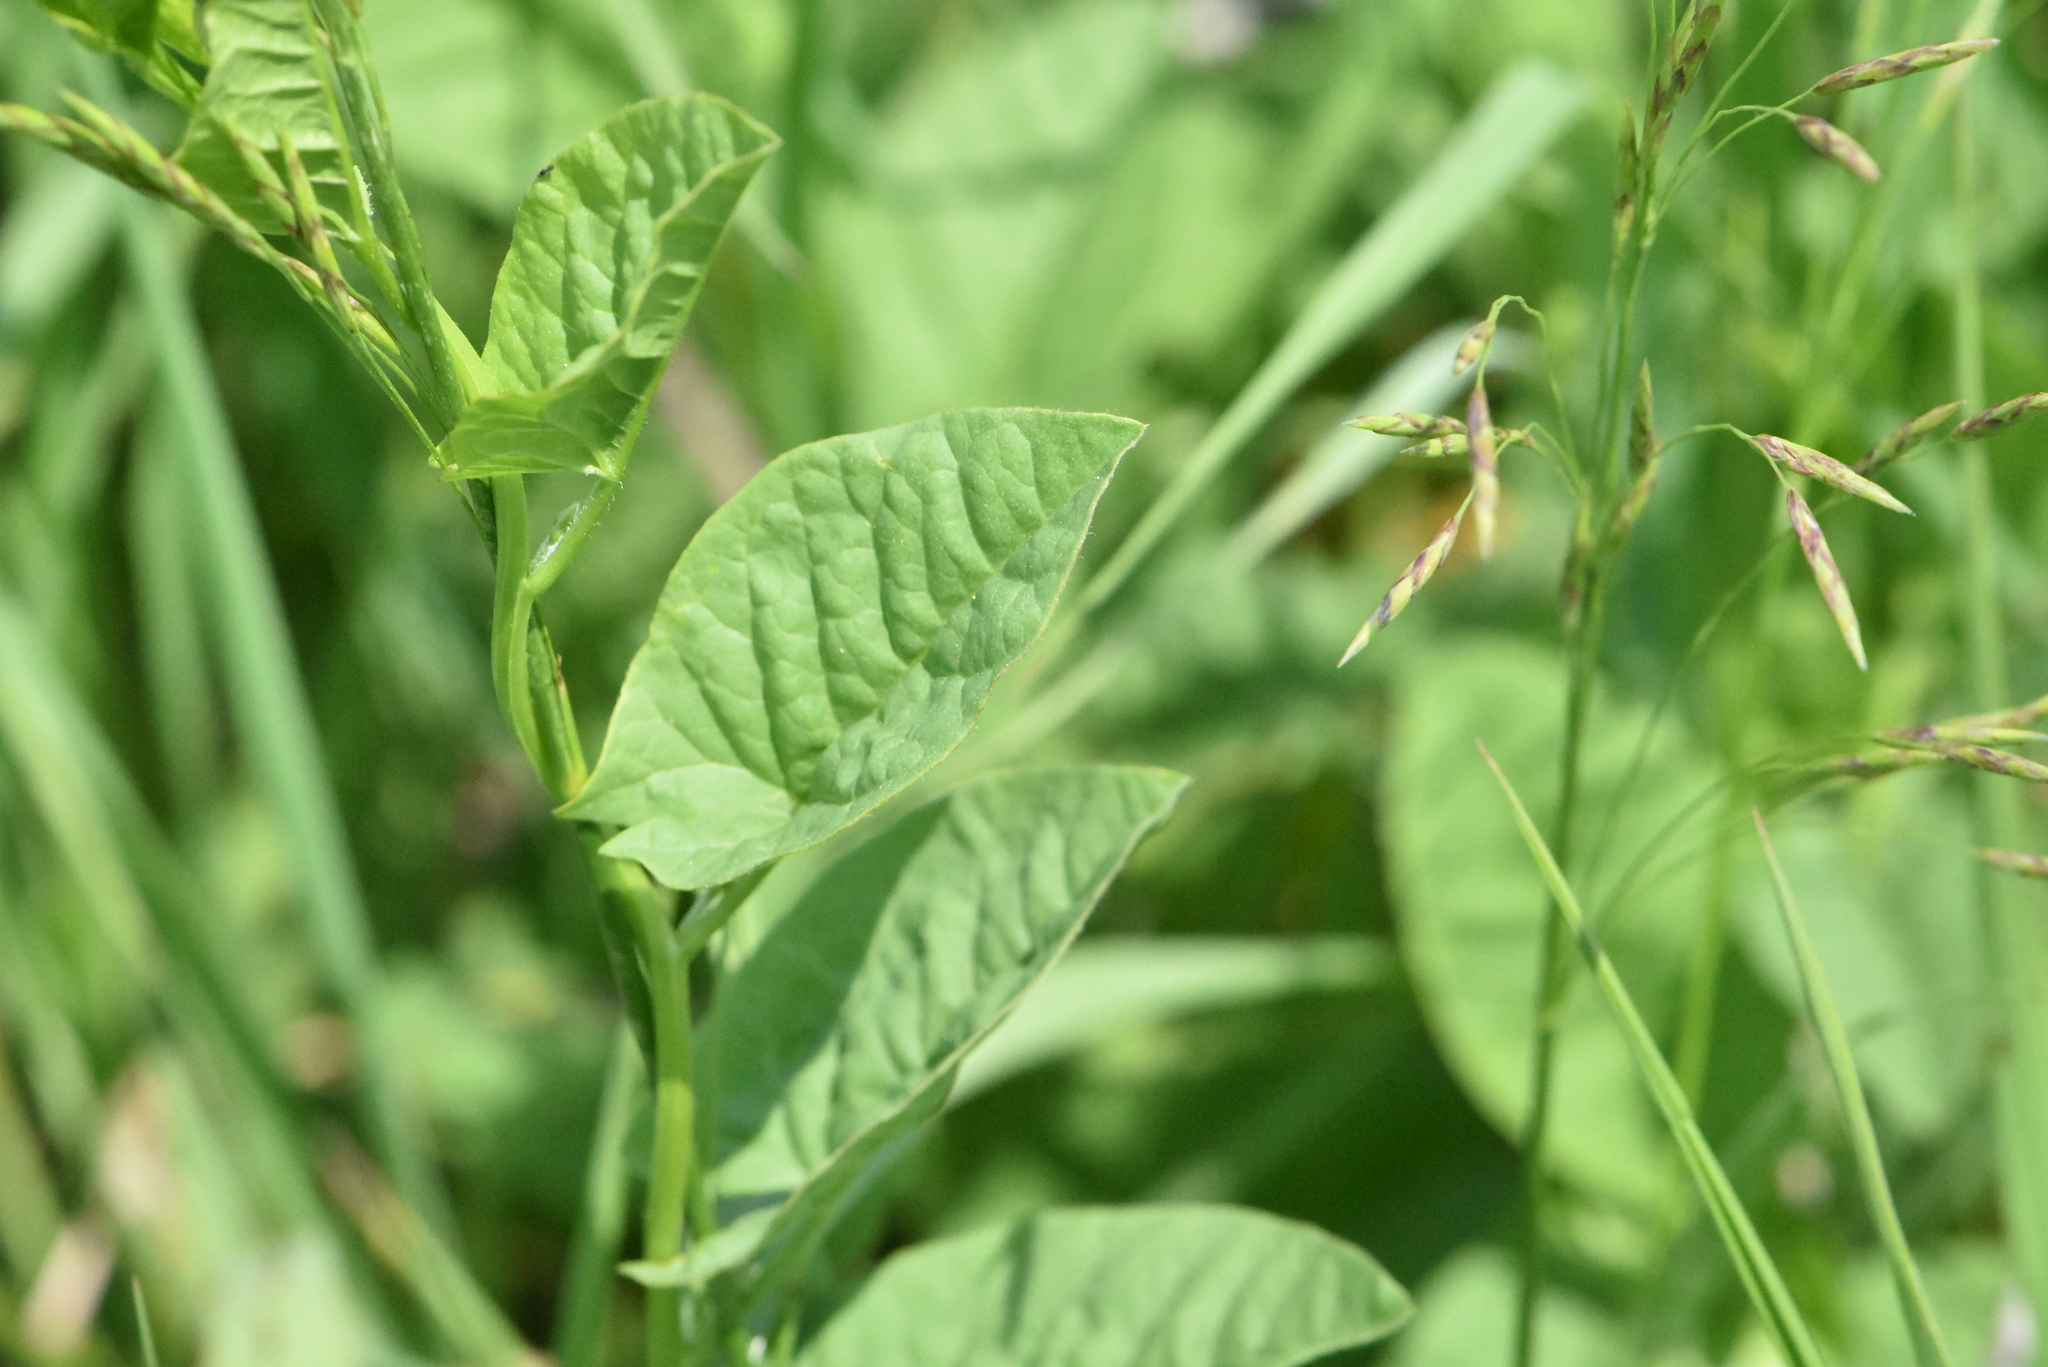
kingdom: Plantae
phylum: Tracheophyta
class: Magnoliopsida
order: Solanales
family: Convolvulaceae
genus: Convolvulus
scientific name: Convolvulus arvensis
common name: Field bindweed
